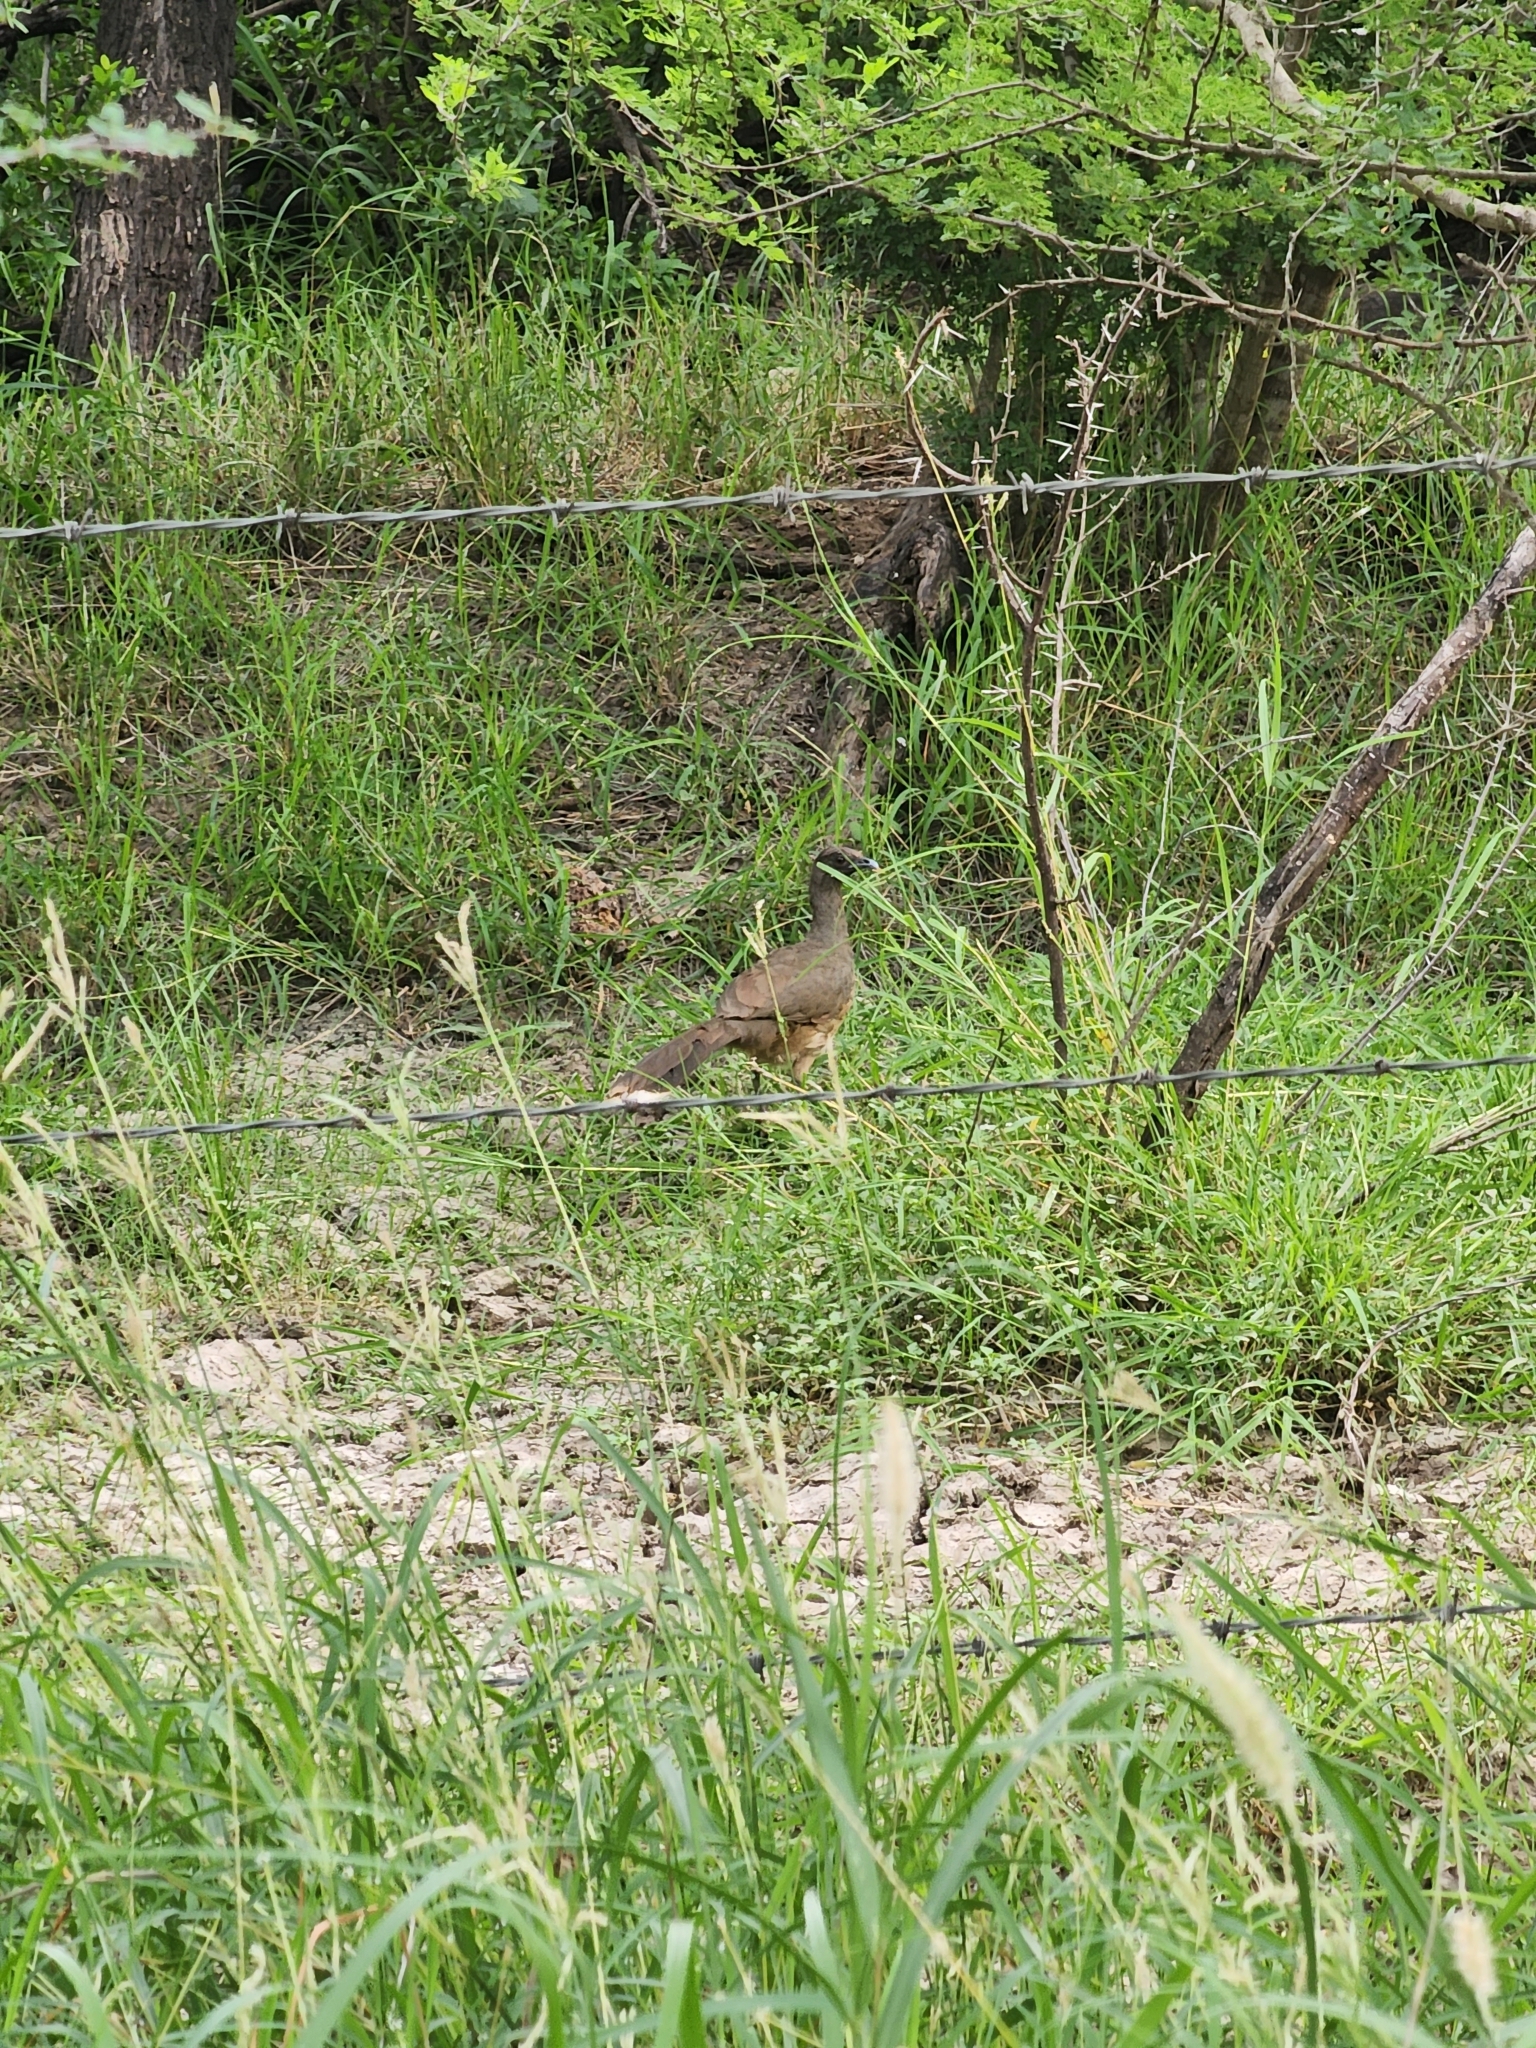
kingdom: Animalia
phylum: Chordata
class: Aves
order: Galliformes
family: Cracidae
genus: Ortalis
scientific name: Ortalis vetula
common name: Plain chachalaca
